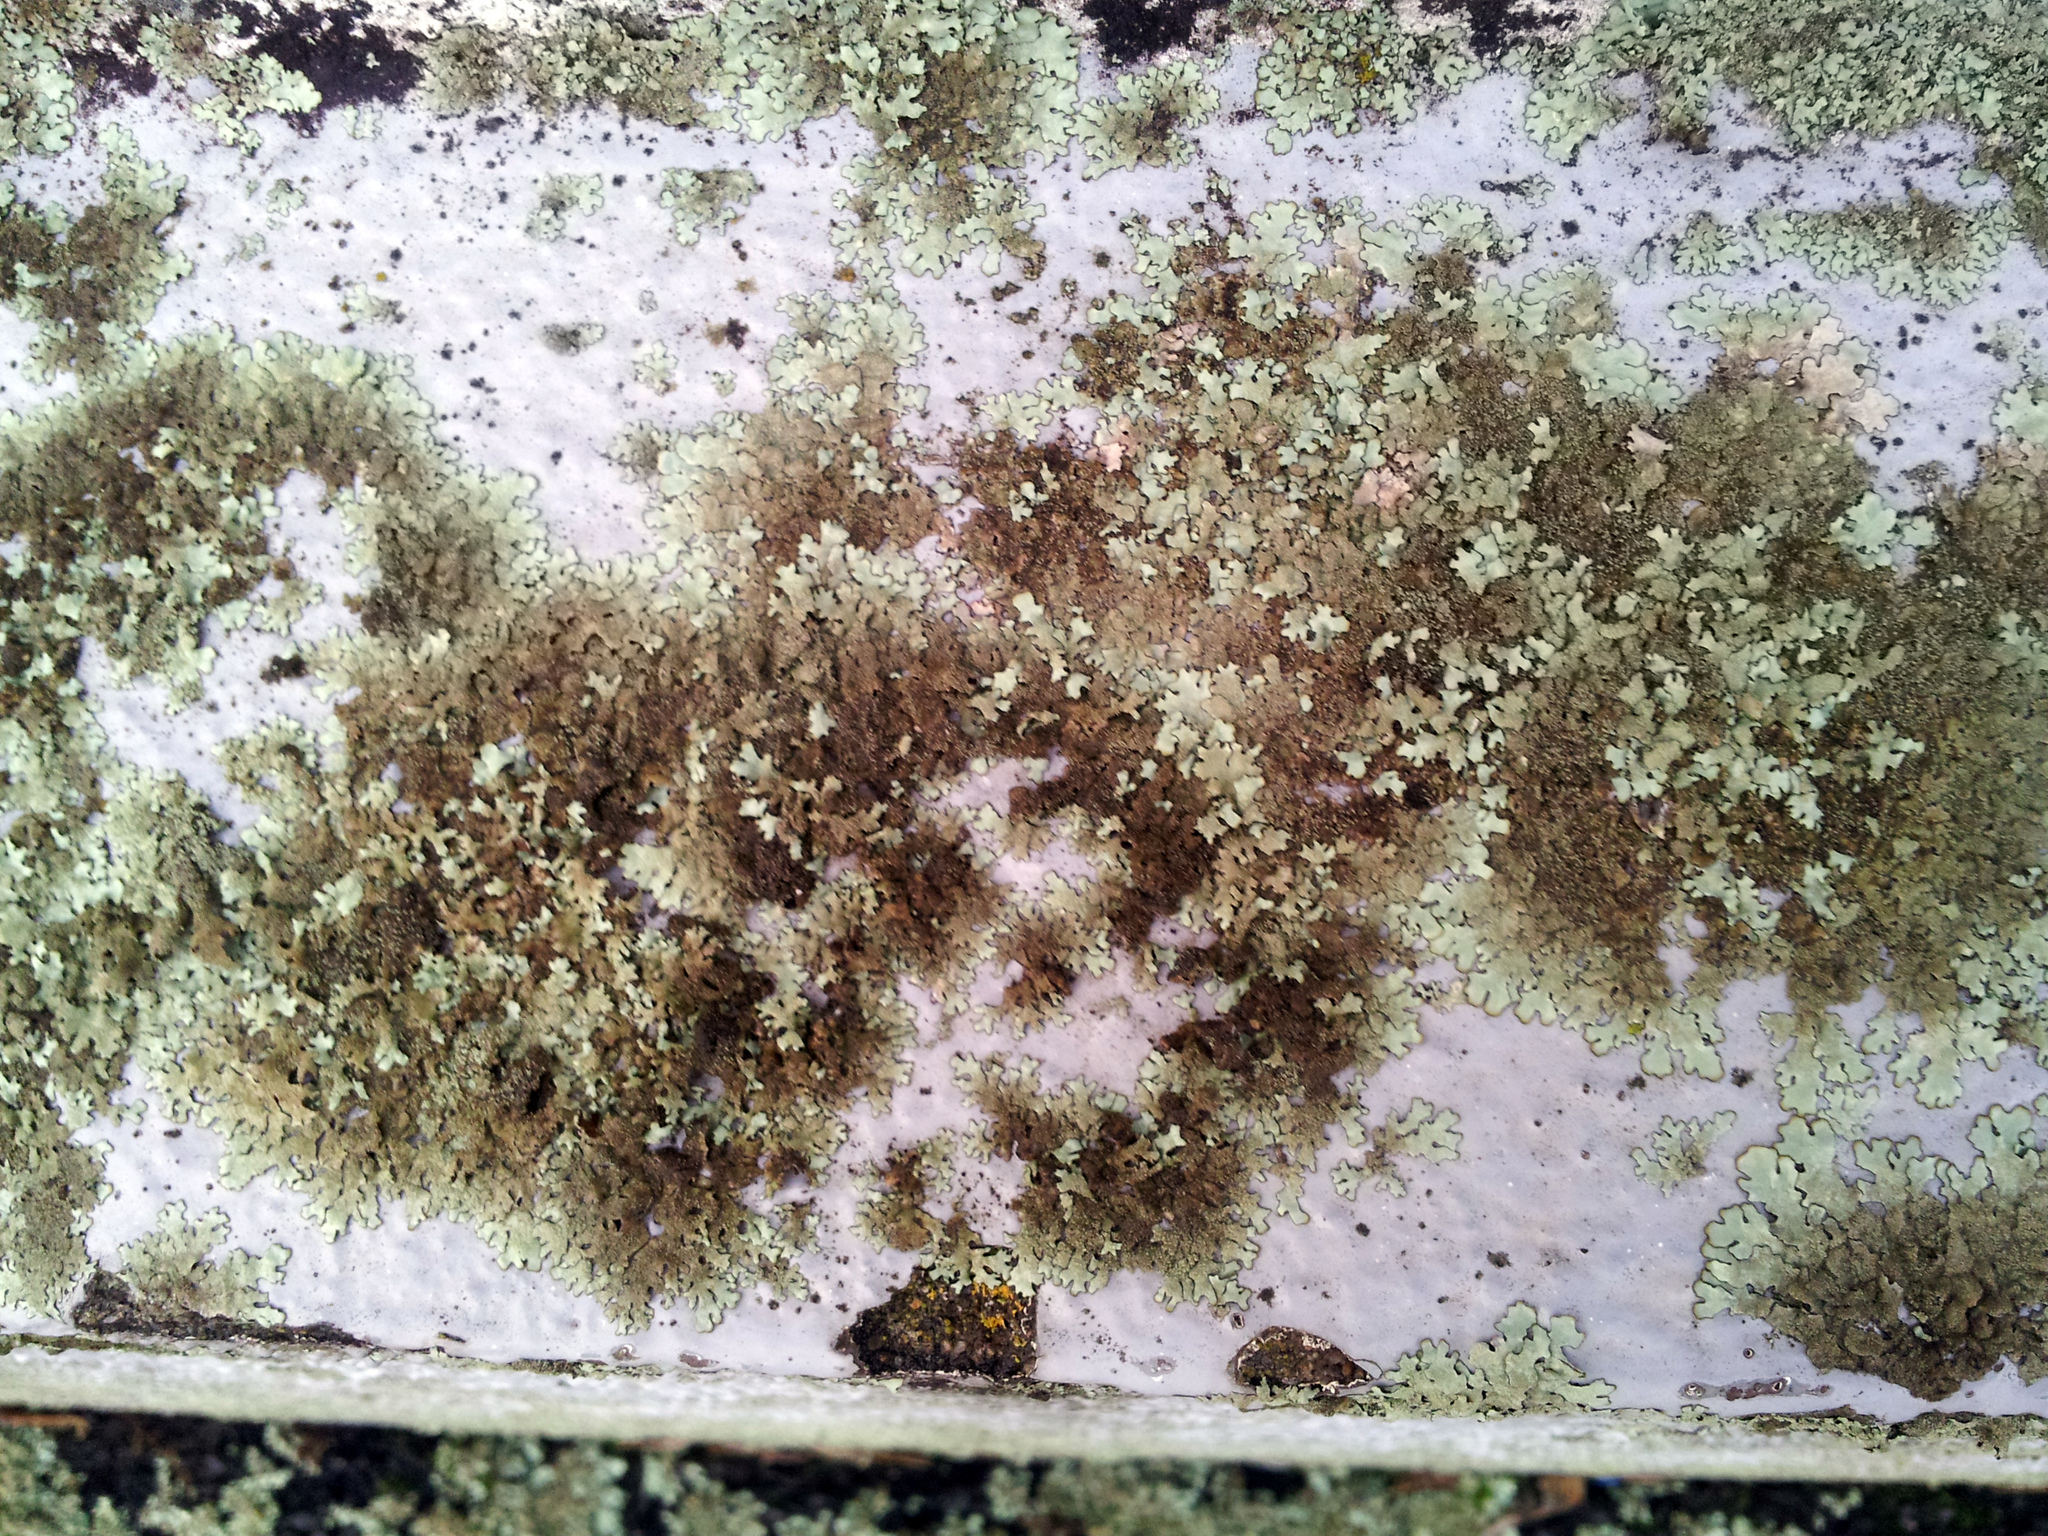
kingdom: Fungi
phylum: Ascomycota
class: Lecanoromycetes
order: Lecanorales
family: Parmeliaceae
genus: Xanthoparmelia
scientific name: Xanthoparmelia scabrosa
